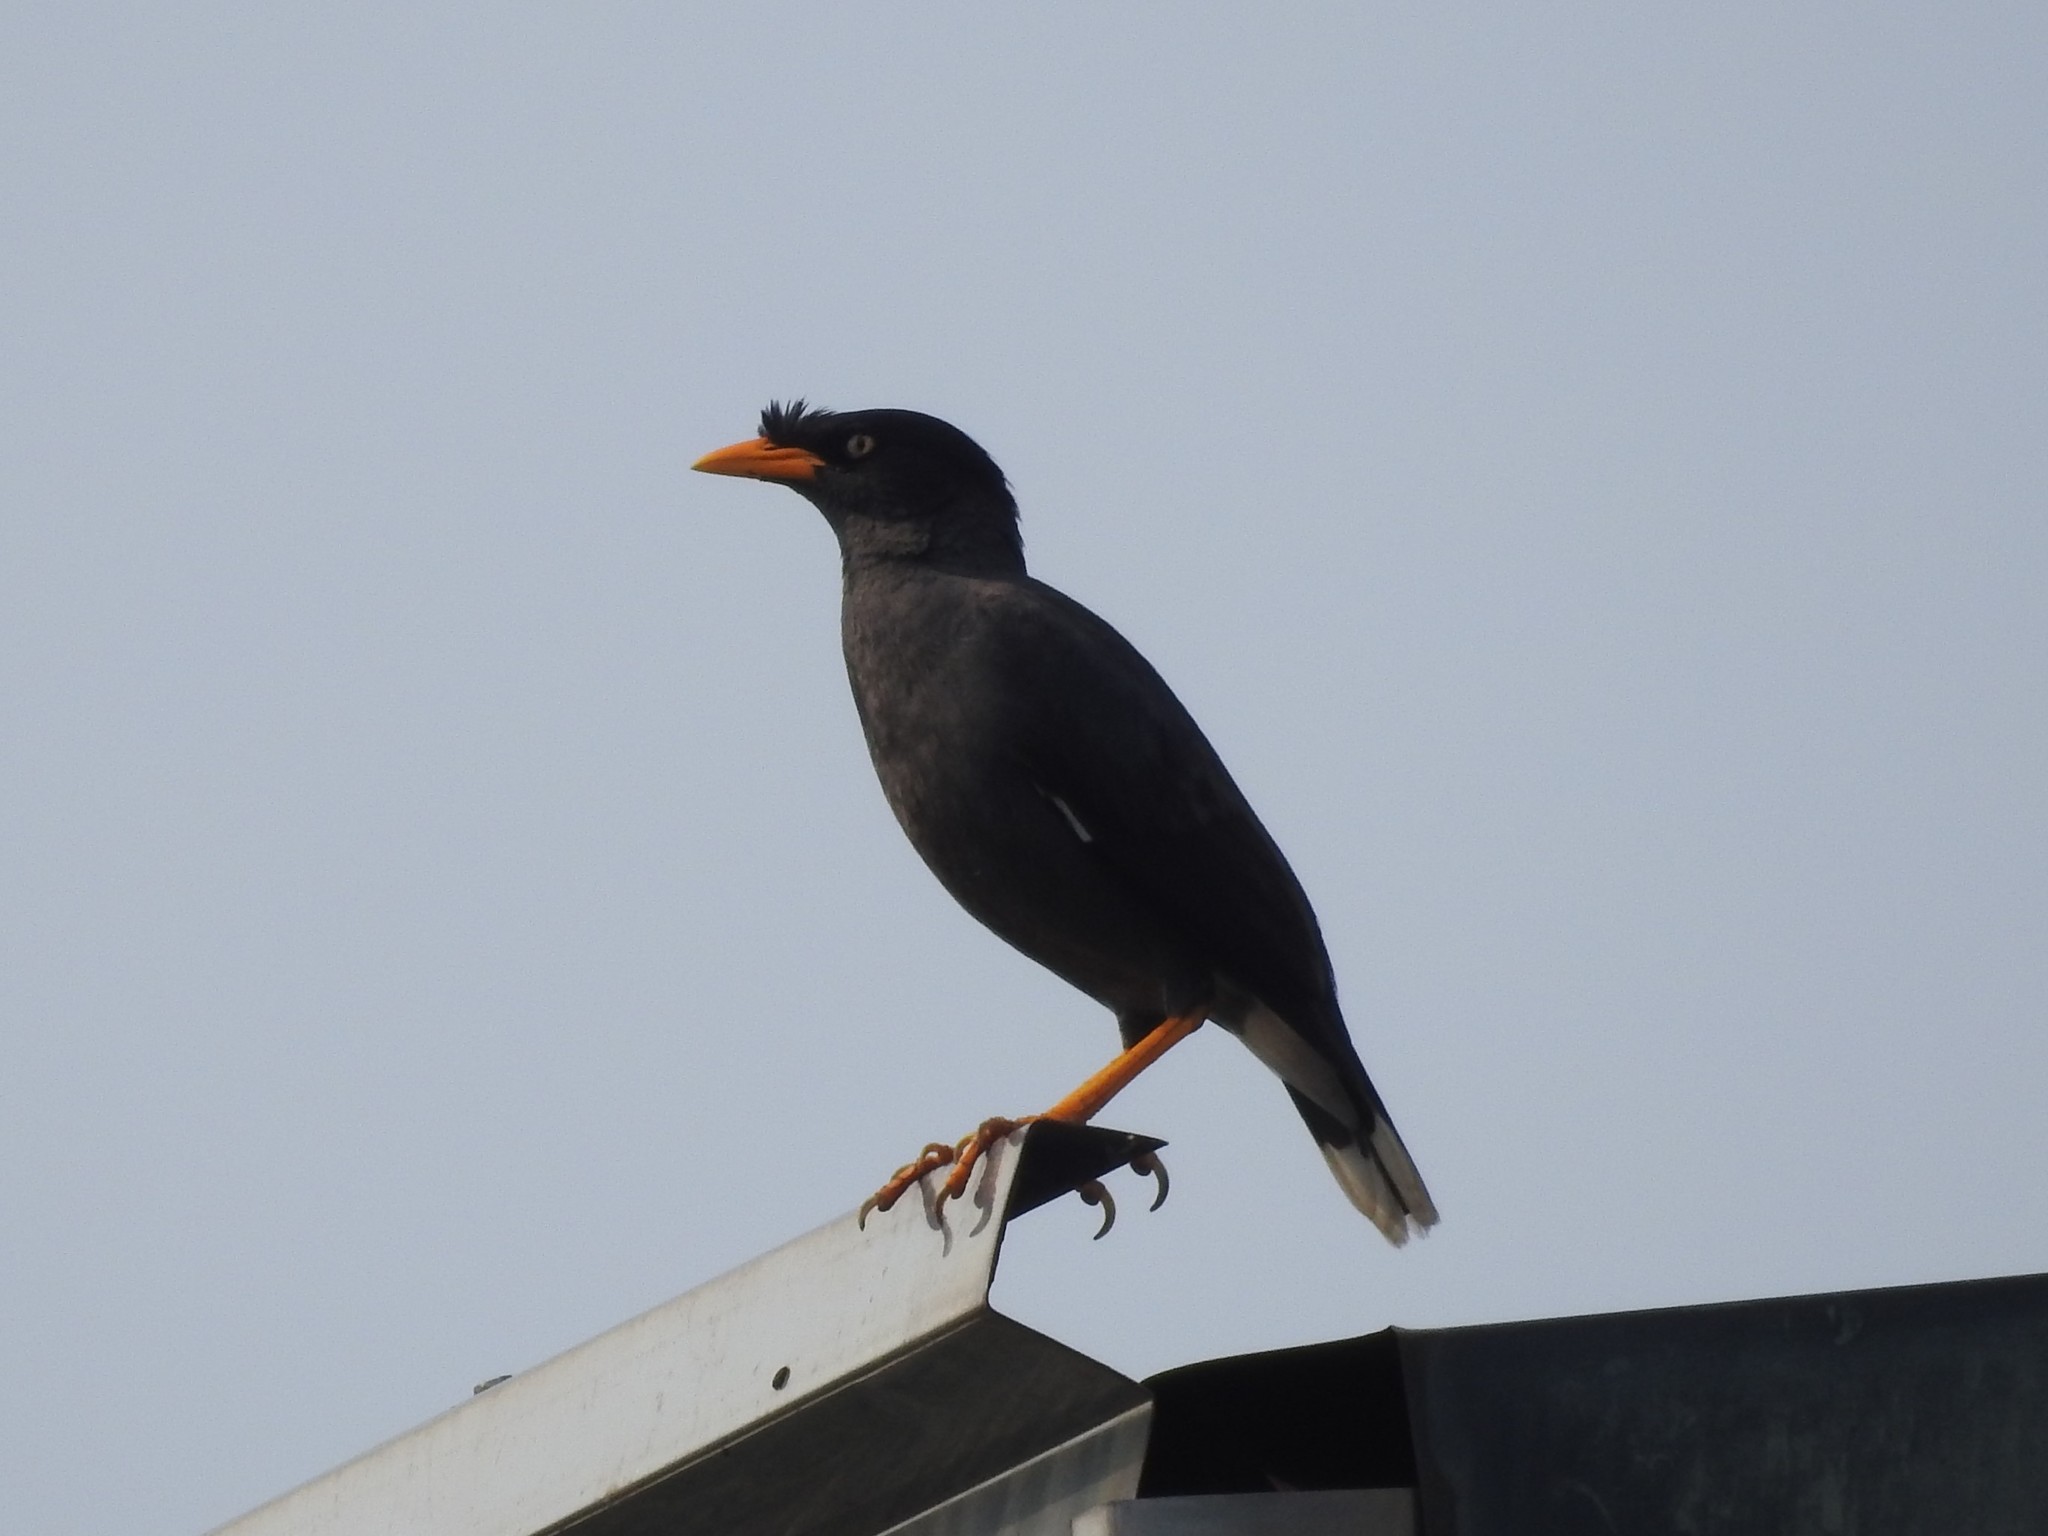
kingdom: Animalia
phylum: Chordata
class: Aves
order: Passeriformes
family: Sturnidae
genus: Acridotheres
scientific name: Acridotheres javanicus
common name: Javan myna
